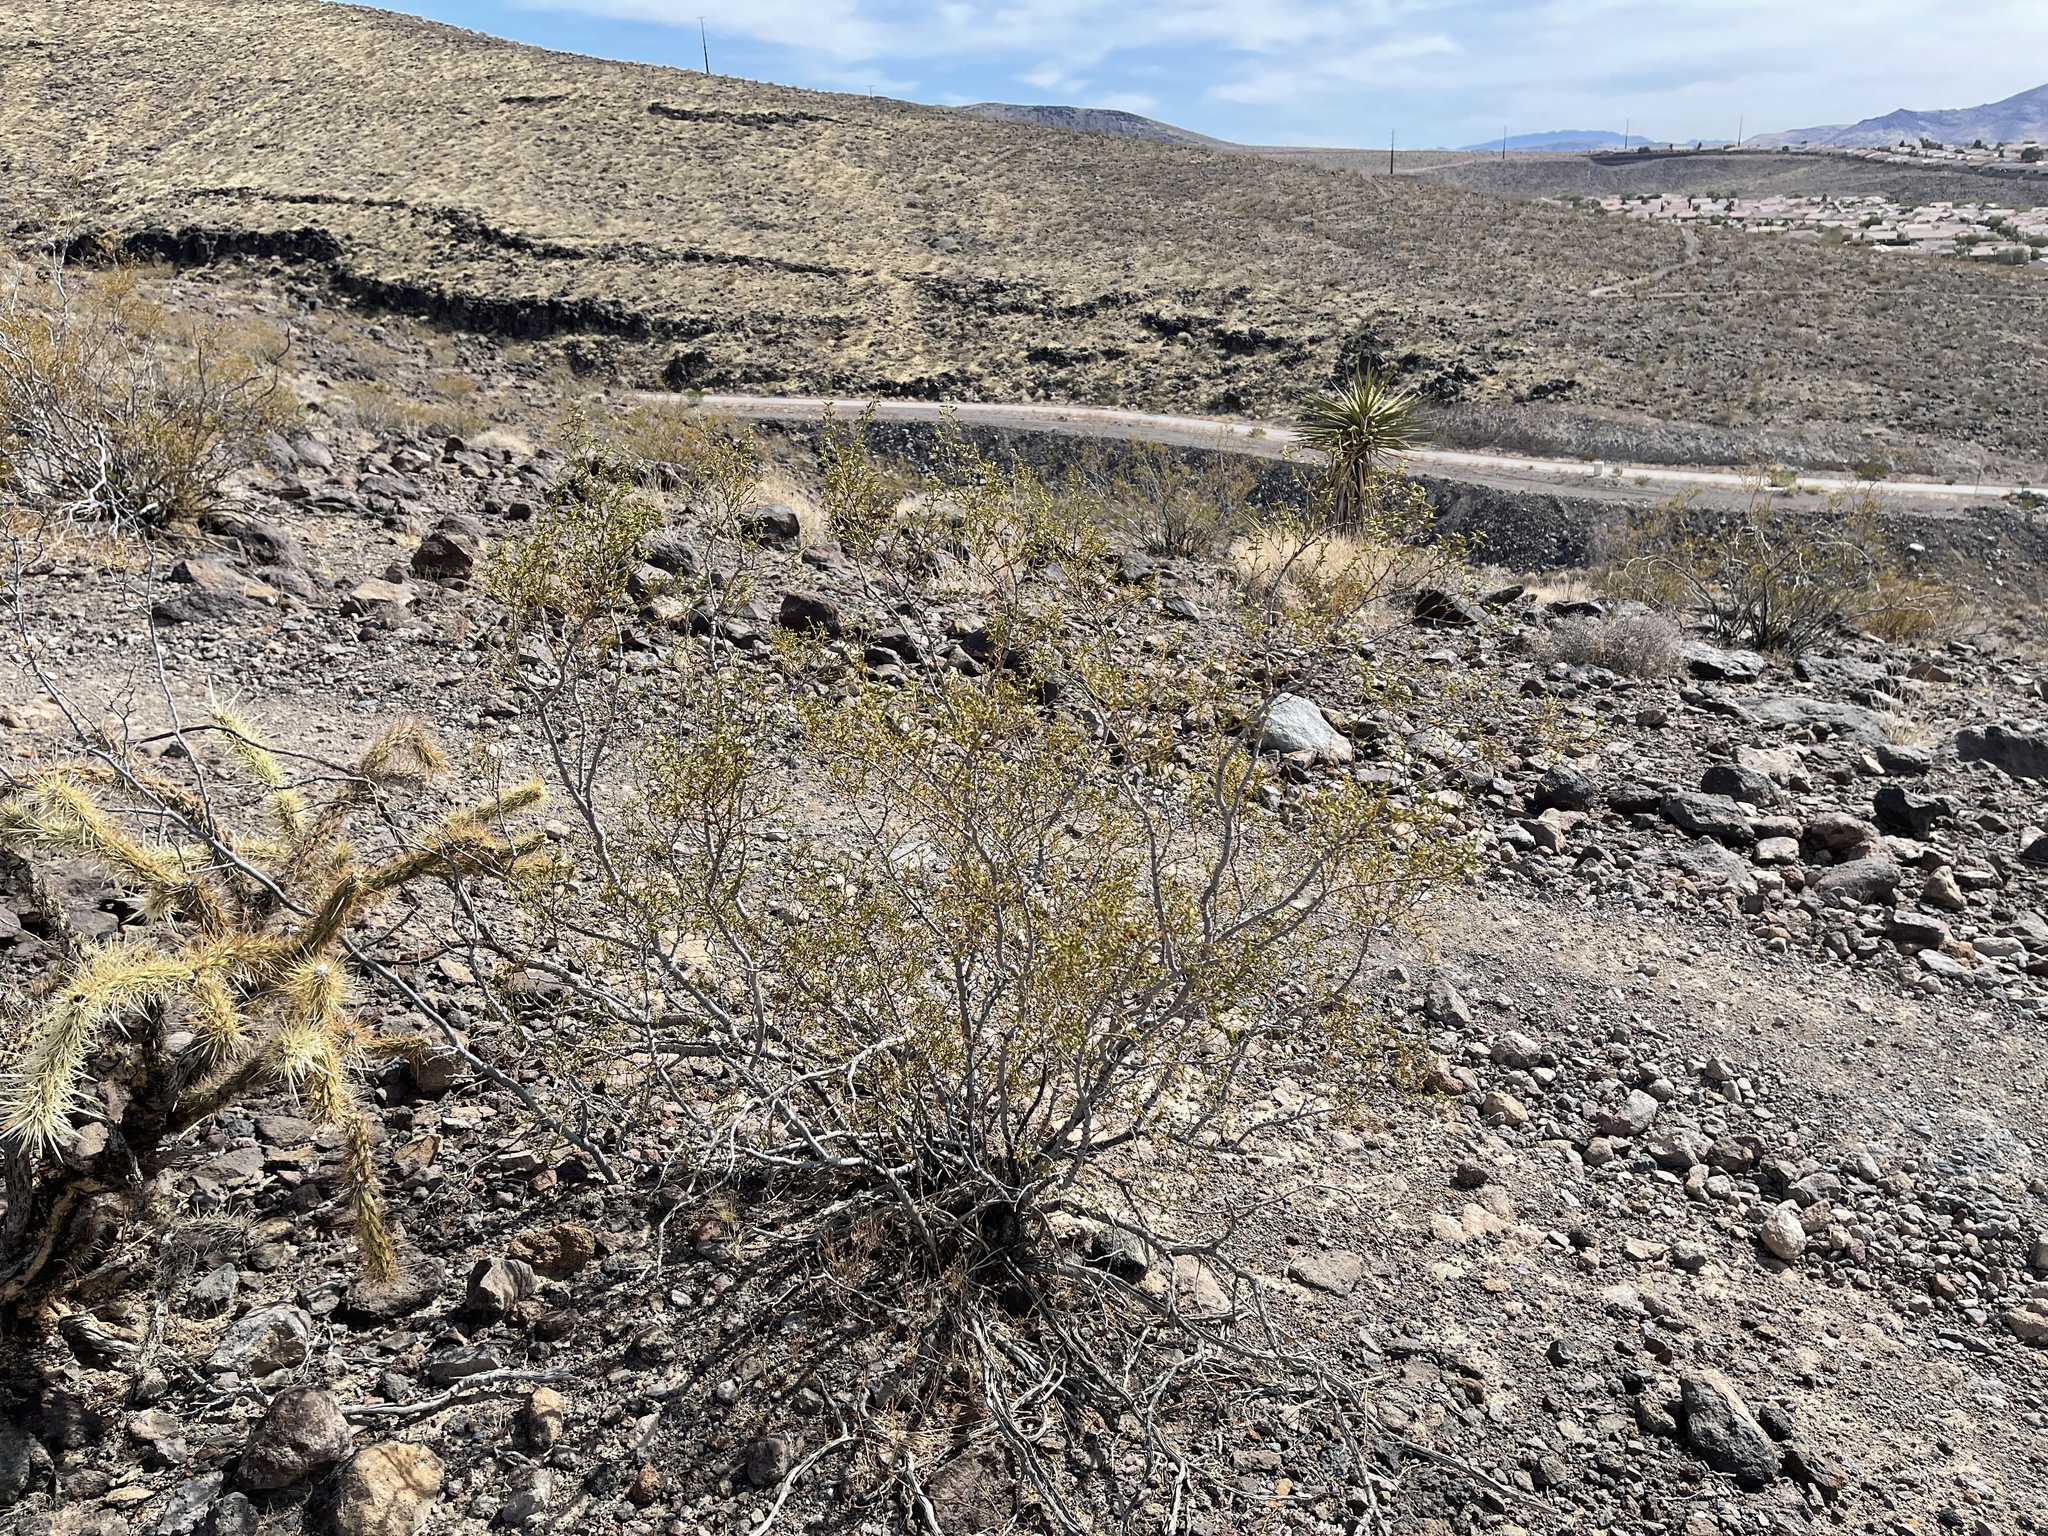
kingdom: Plantae
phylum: Tracheophyta
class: Magnoliopsida
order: Zygophyllales
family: Zygophyllaceae
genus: Larrea
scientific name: Larrea tridentata
